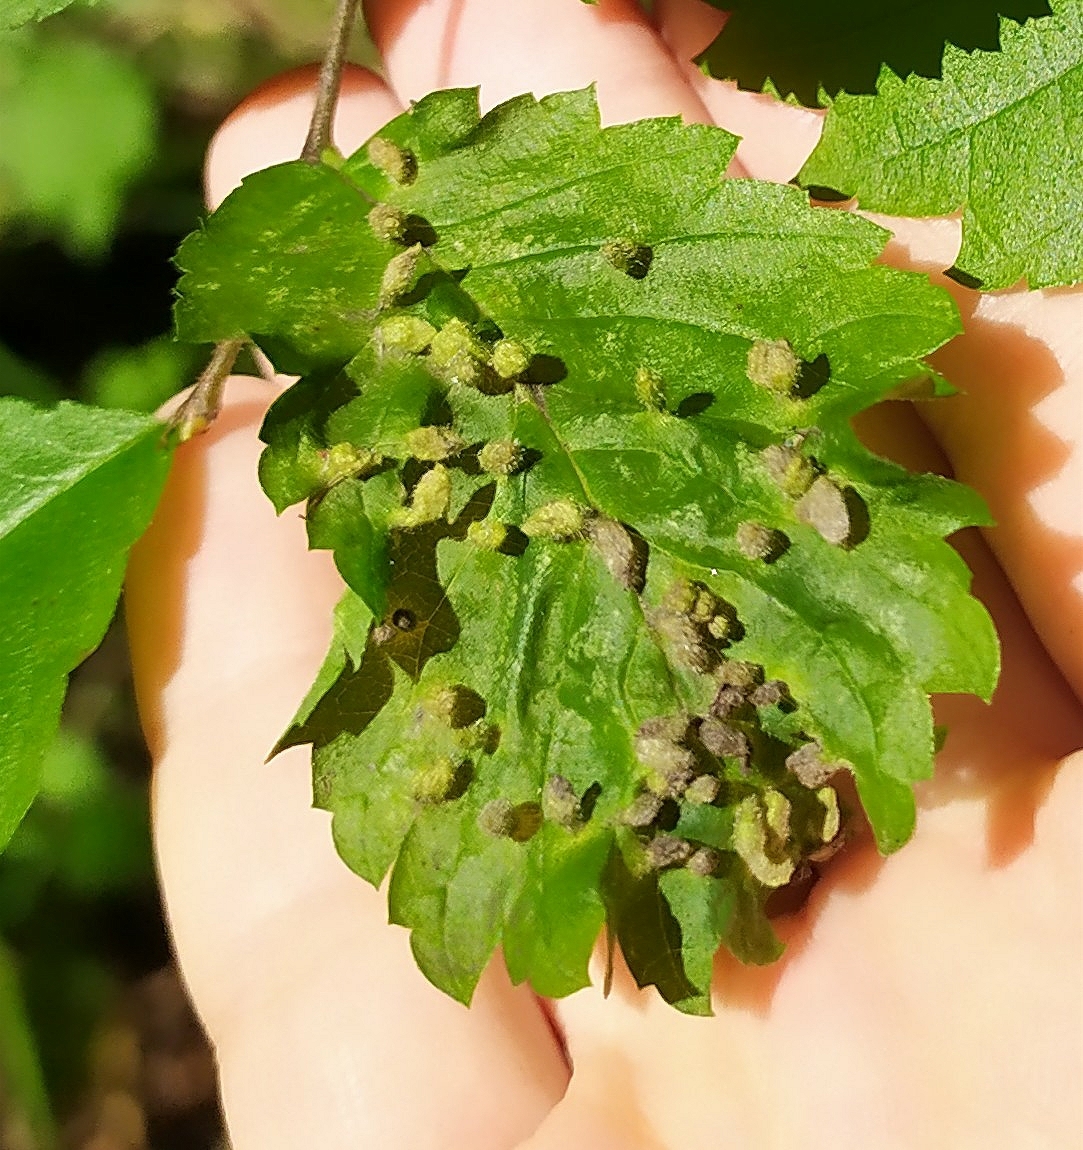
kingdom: Animalia
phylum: Arthropoda
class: Arachnida
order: Trombidiformes
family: Eriophyidae
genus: Aceria
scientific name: Aceria brevipunctata
